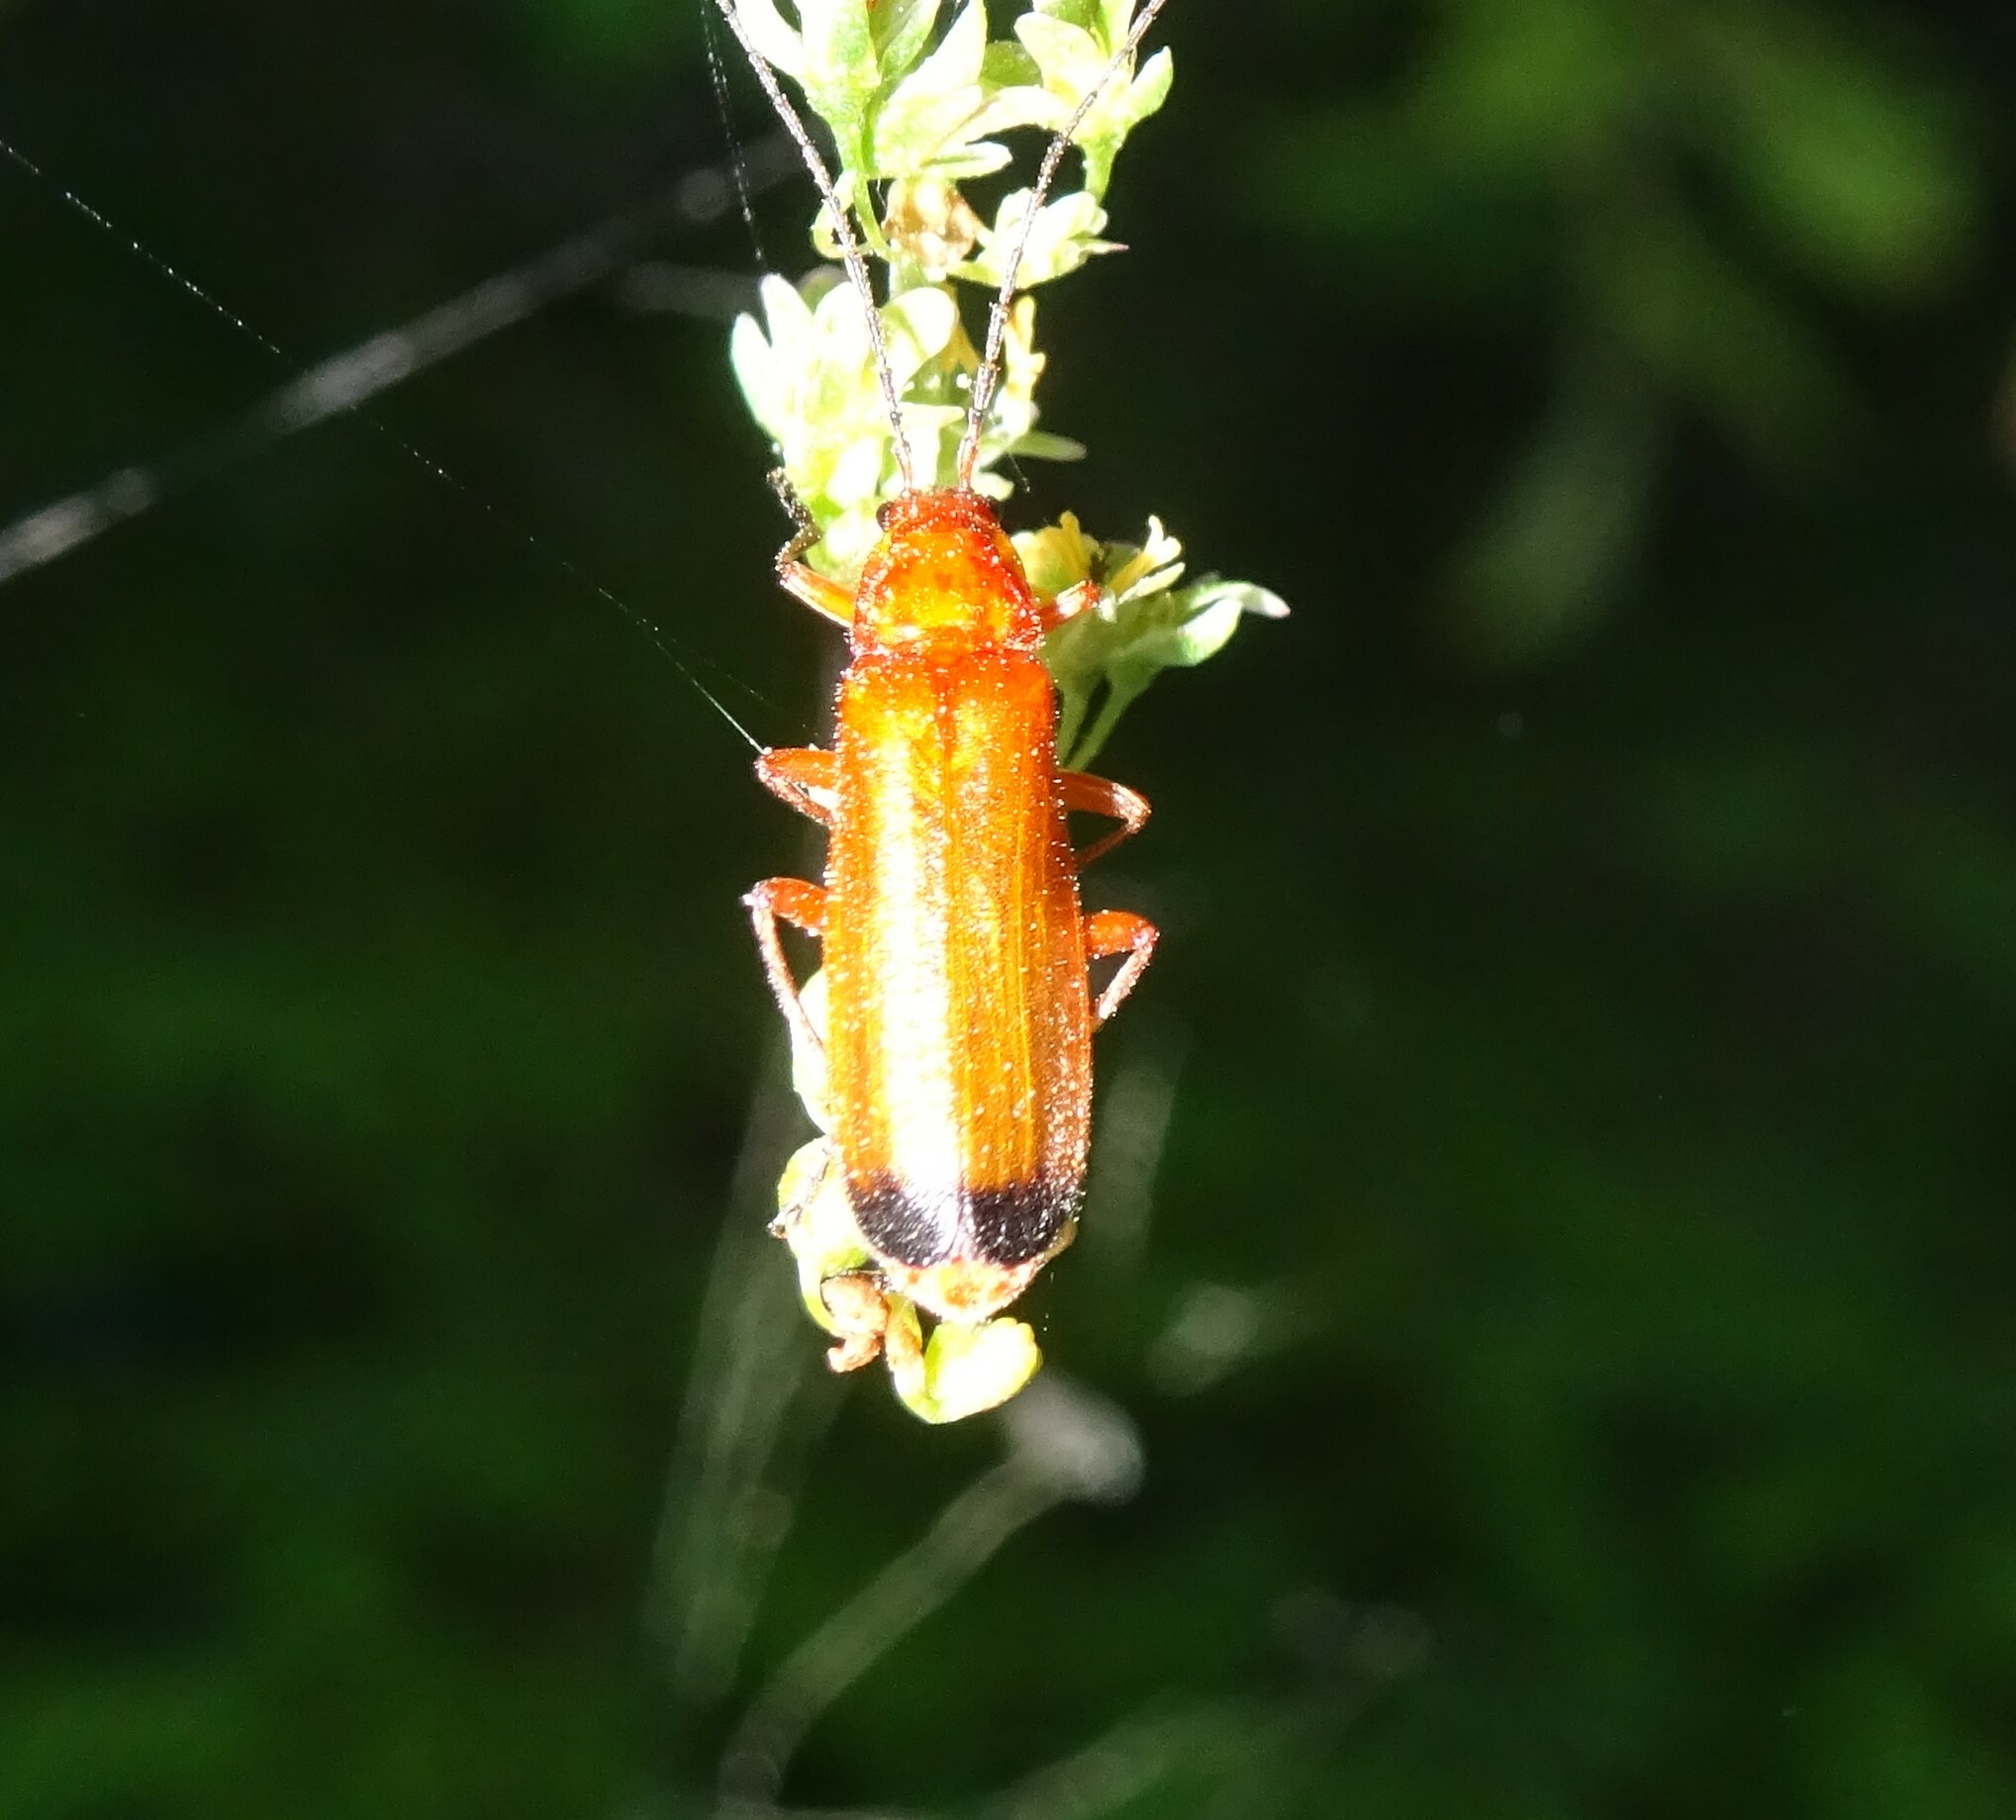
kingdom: Animalia
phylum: Arthropoda
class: Insecta
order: Coleoptera
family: Cantharidae
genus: Rhagonycha
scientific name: Rhagonycha fulva
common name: Common red soldier beetle
